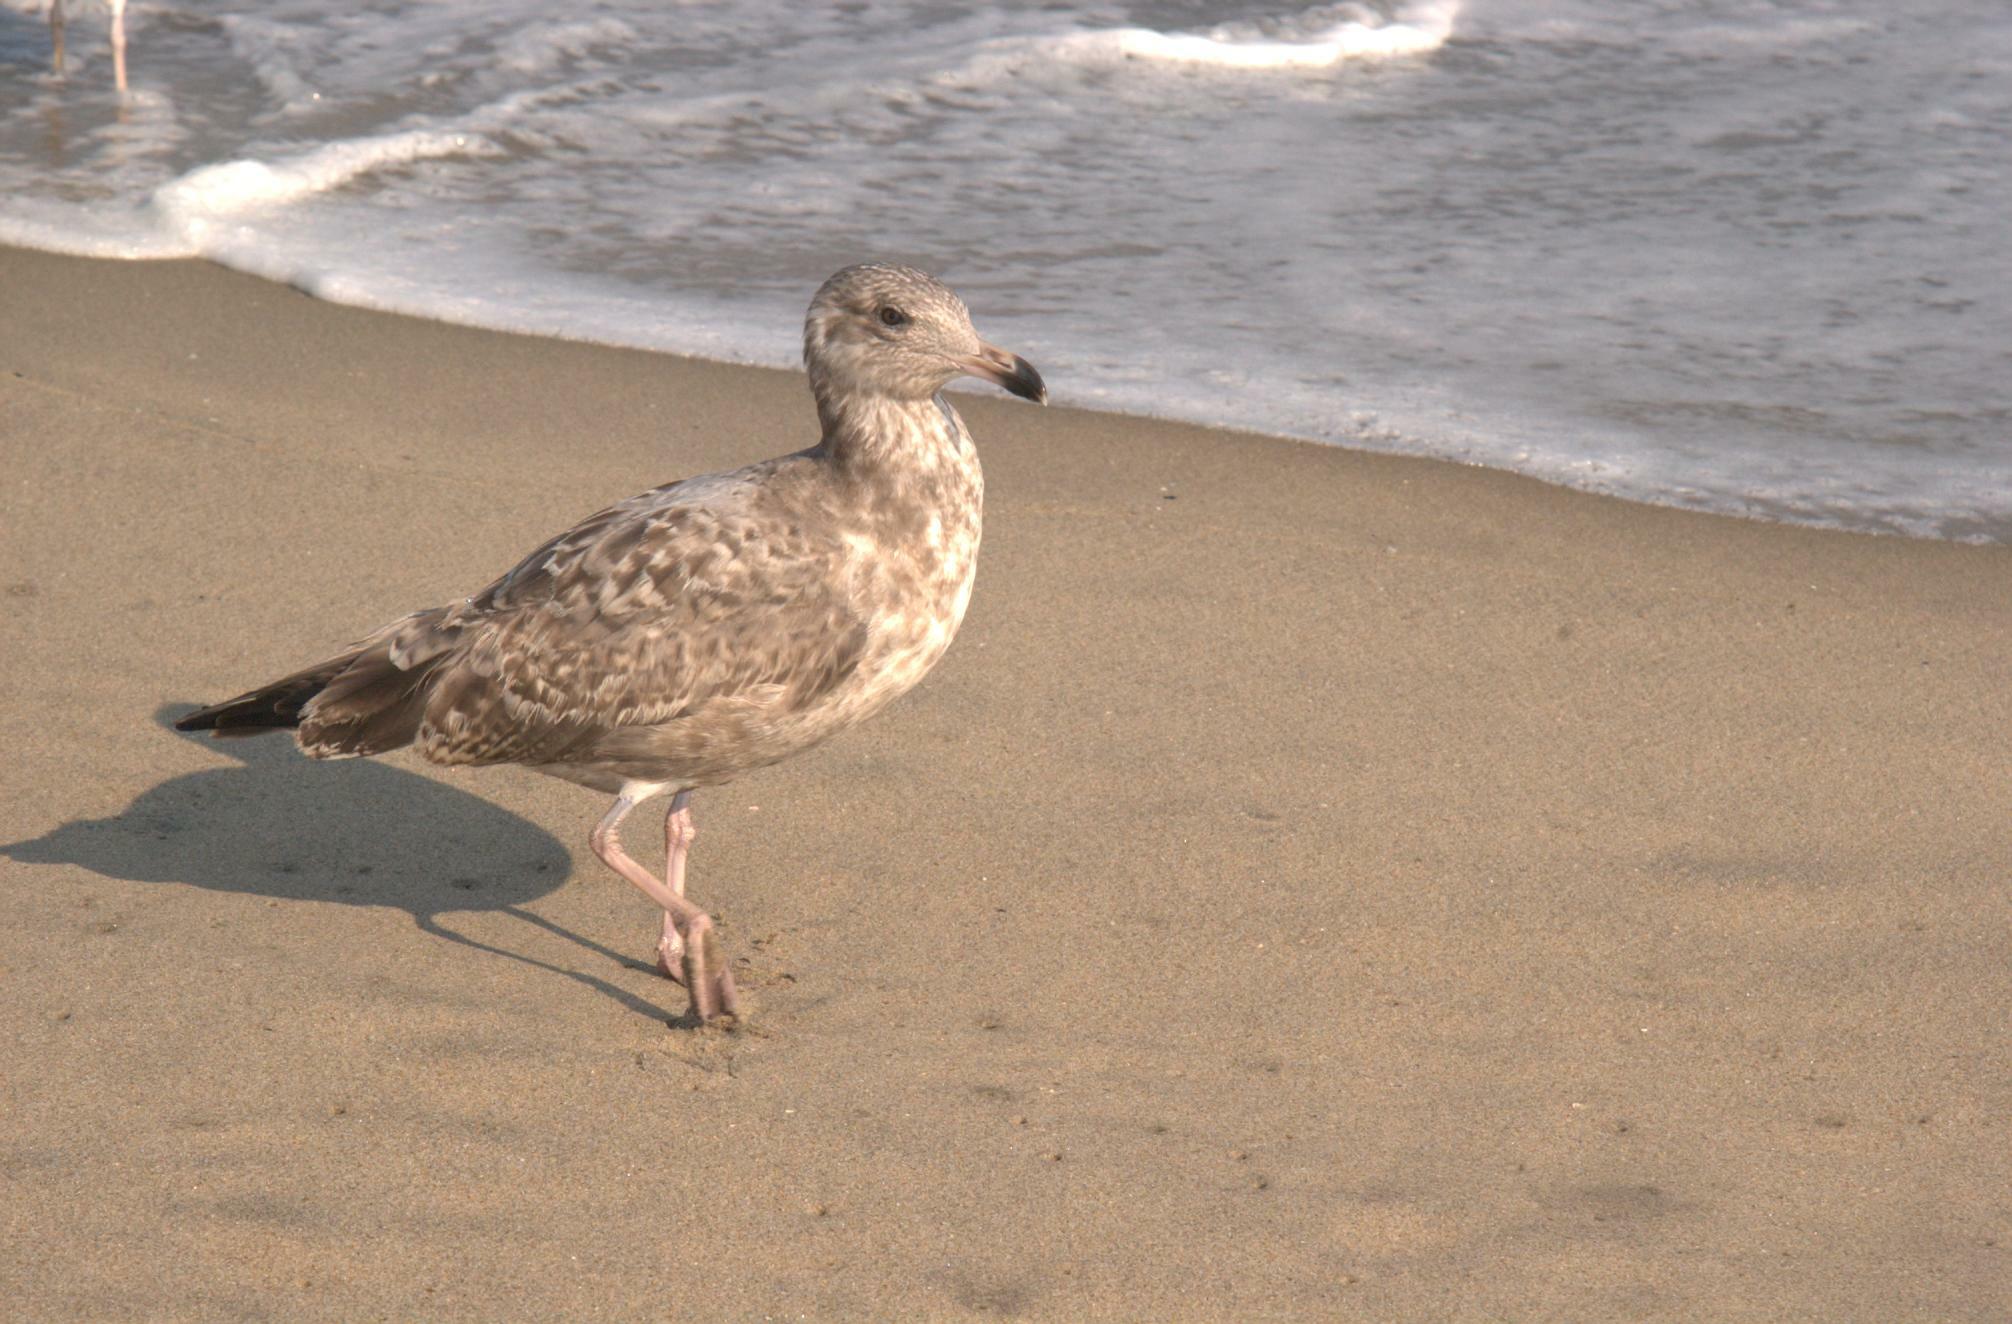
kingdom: Animalia
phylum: Chordata
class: Aves
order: Charadriiformes
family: Laridae
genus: Larus
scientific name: Larus argentatus
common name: Herring gull
